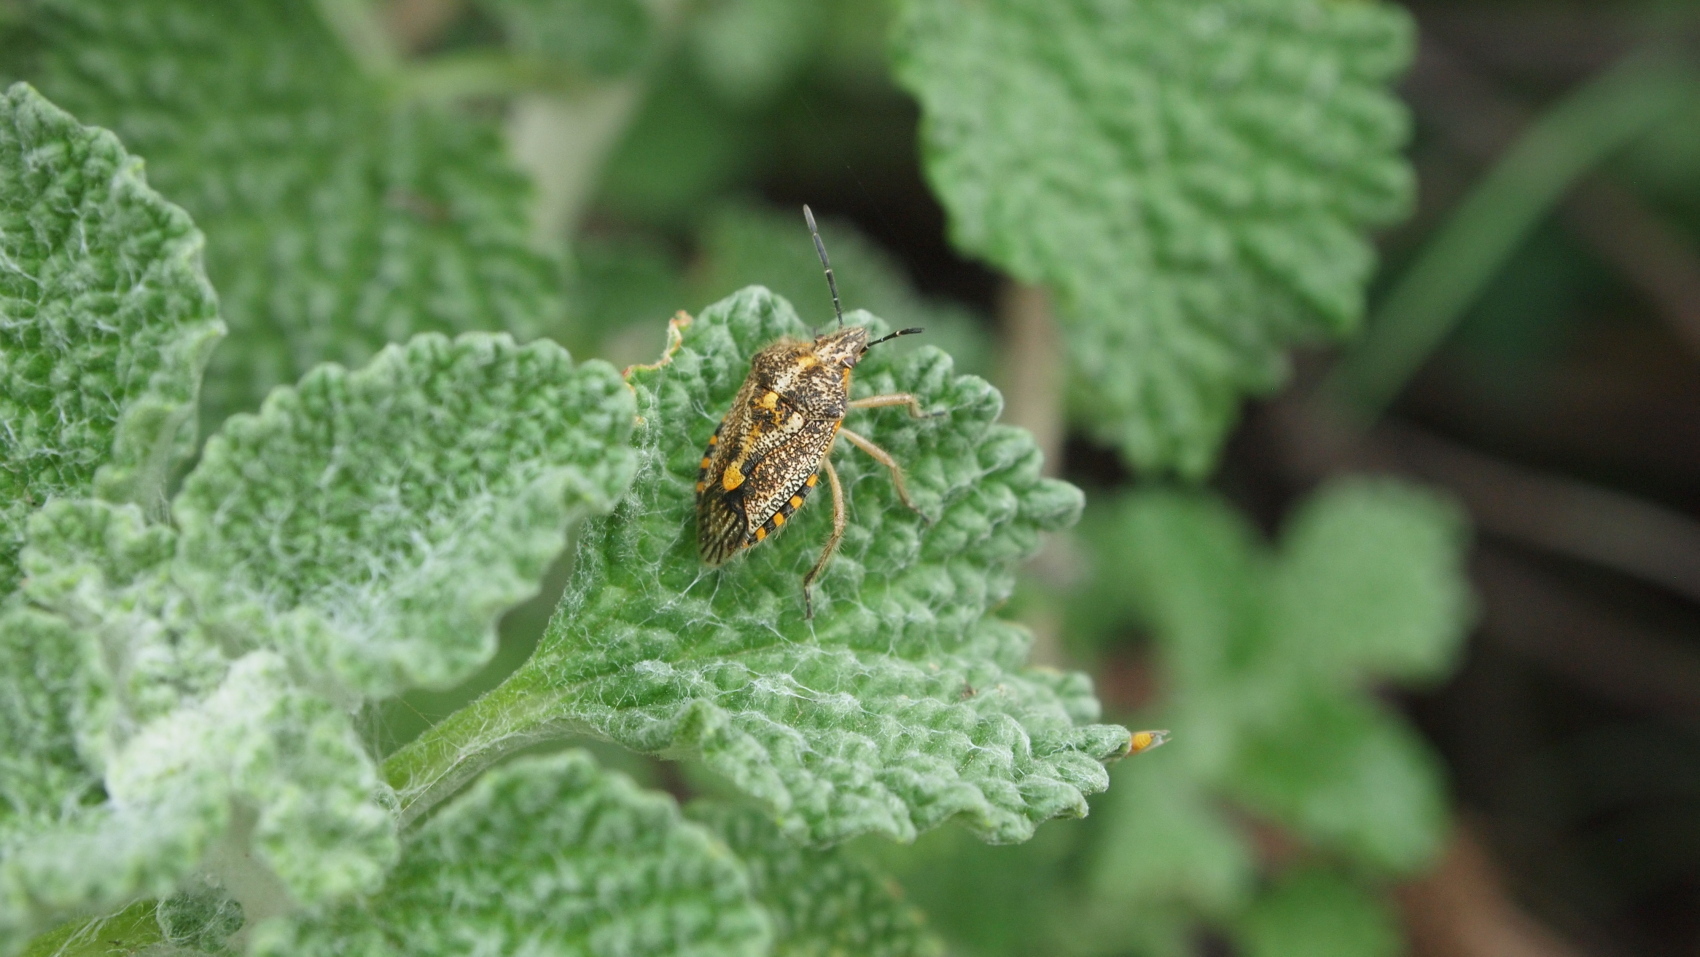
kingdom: Animalia
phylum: Arthropoda
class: Insecta
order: Hemiptera
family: Pentatomidae
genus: Agonoscelis
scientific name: Agonoscelis puberula
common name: African cluster bug
